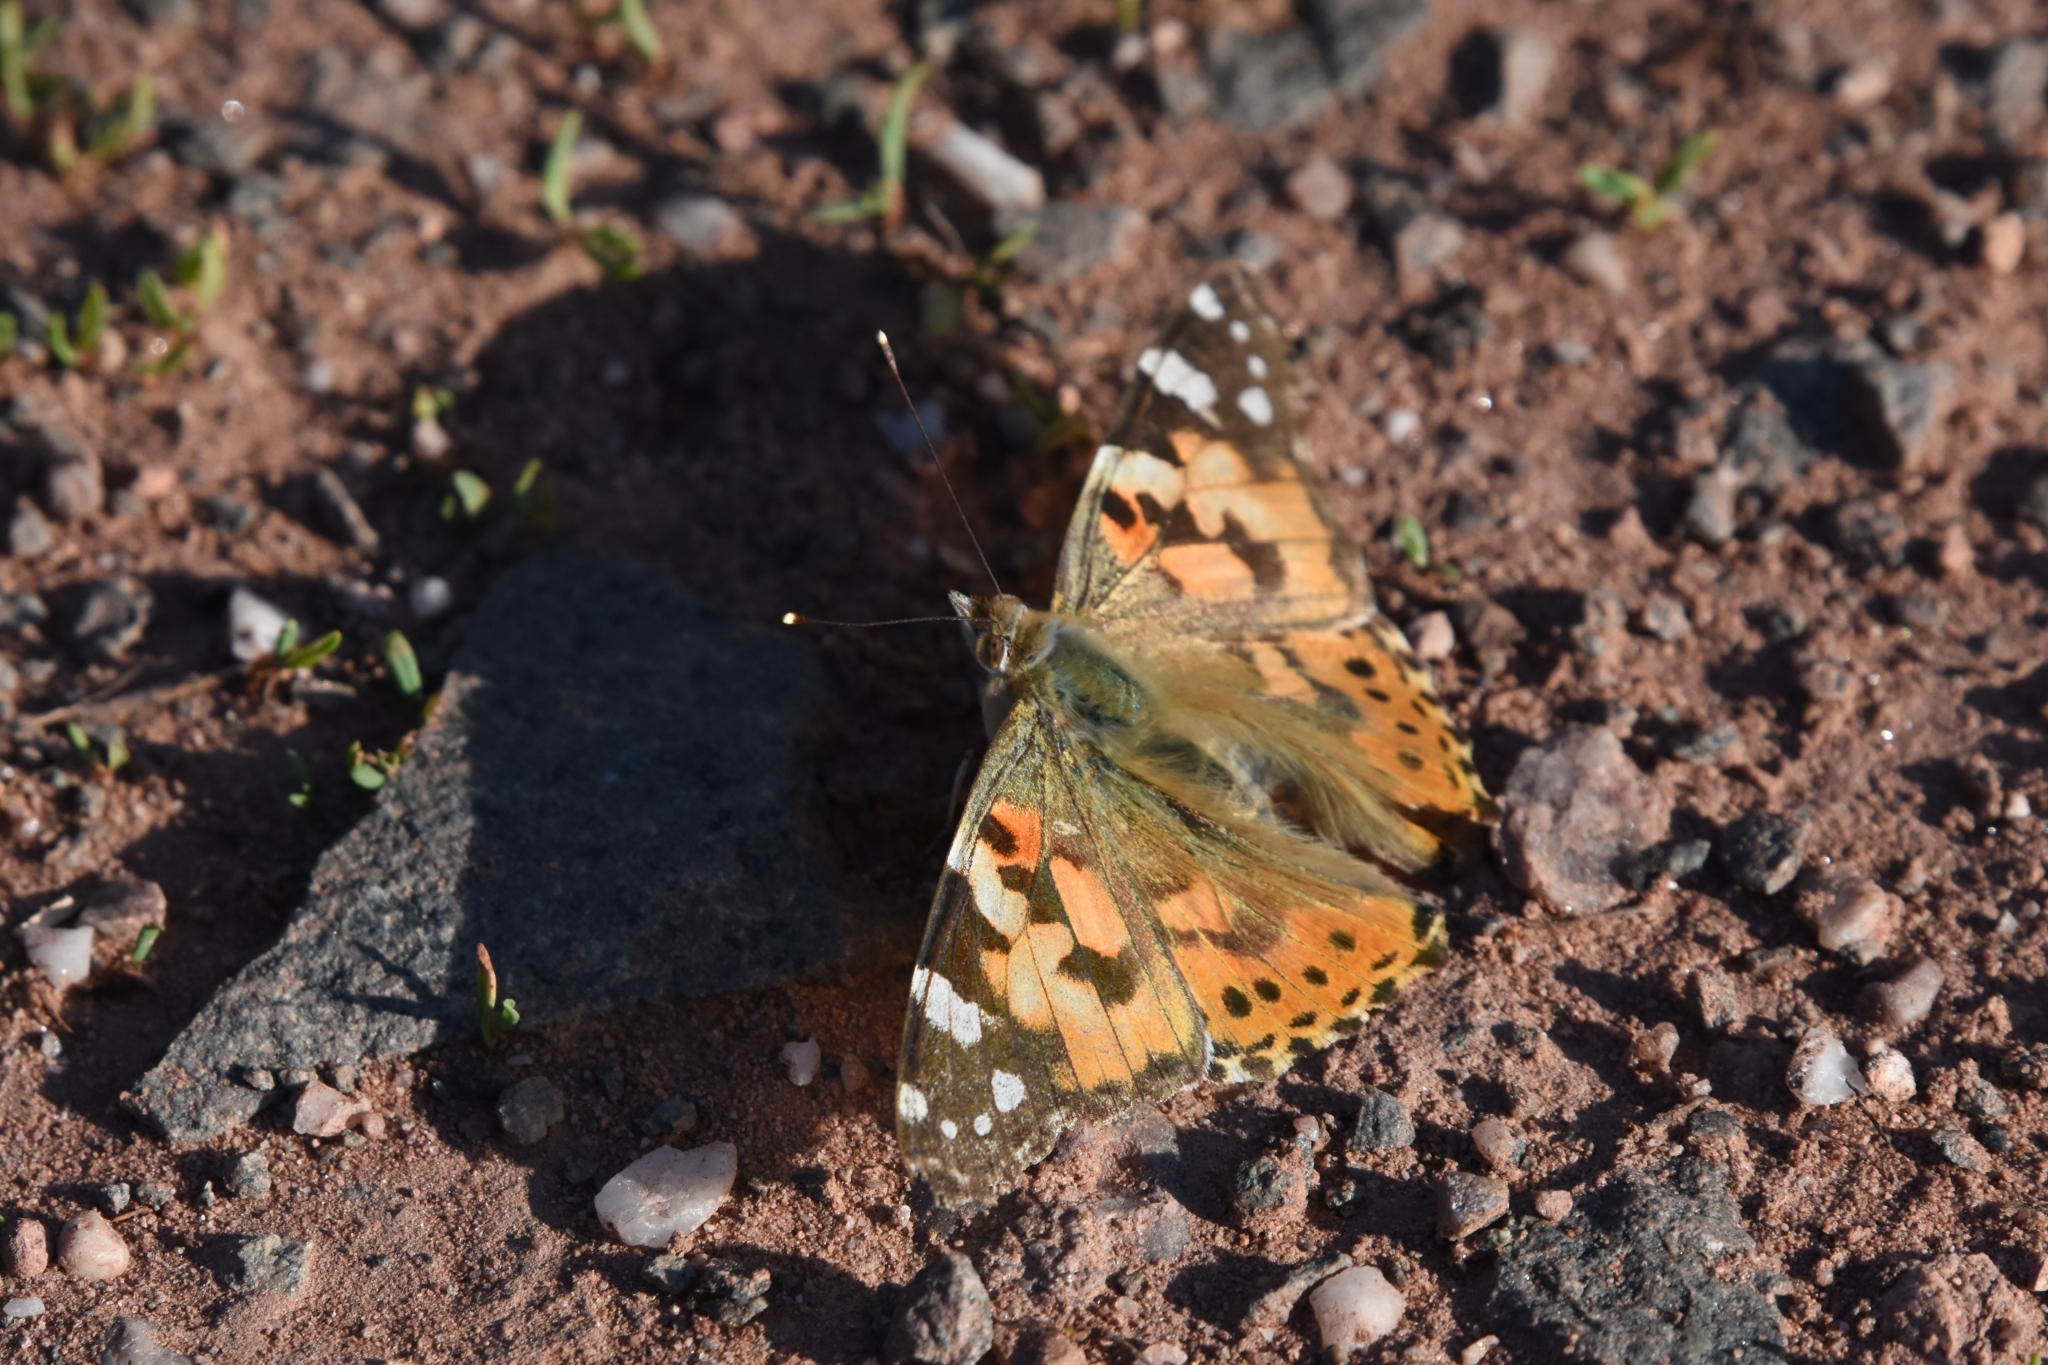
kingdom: Animalia
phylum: Arthropoda
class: Insecta
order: Lepidoptera
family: Nymphalidae
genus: Vanessa
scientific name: Vanessa cardui
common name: Painted lady
